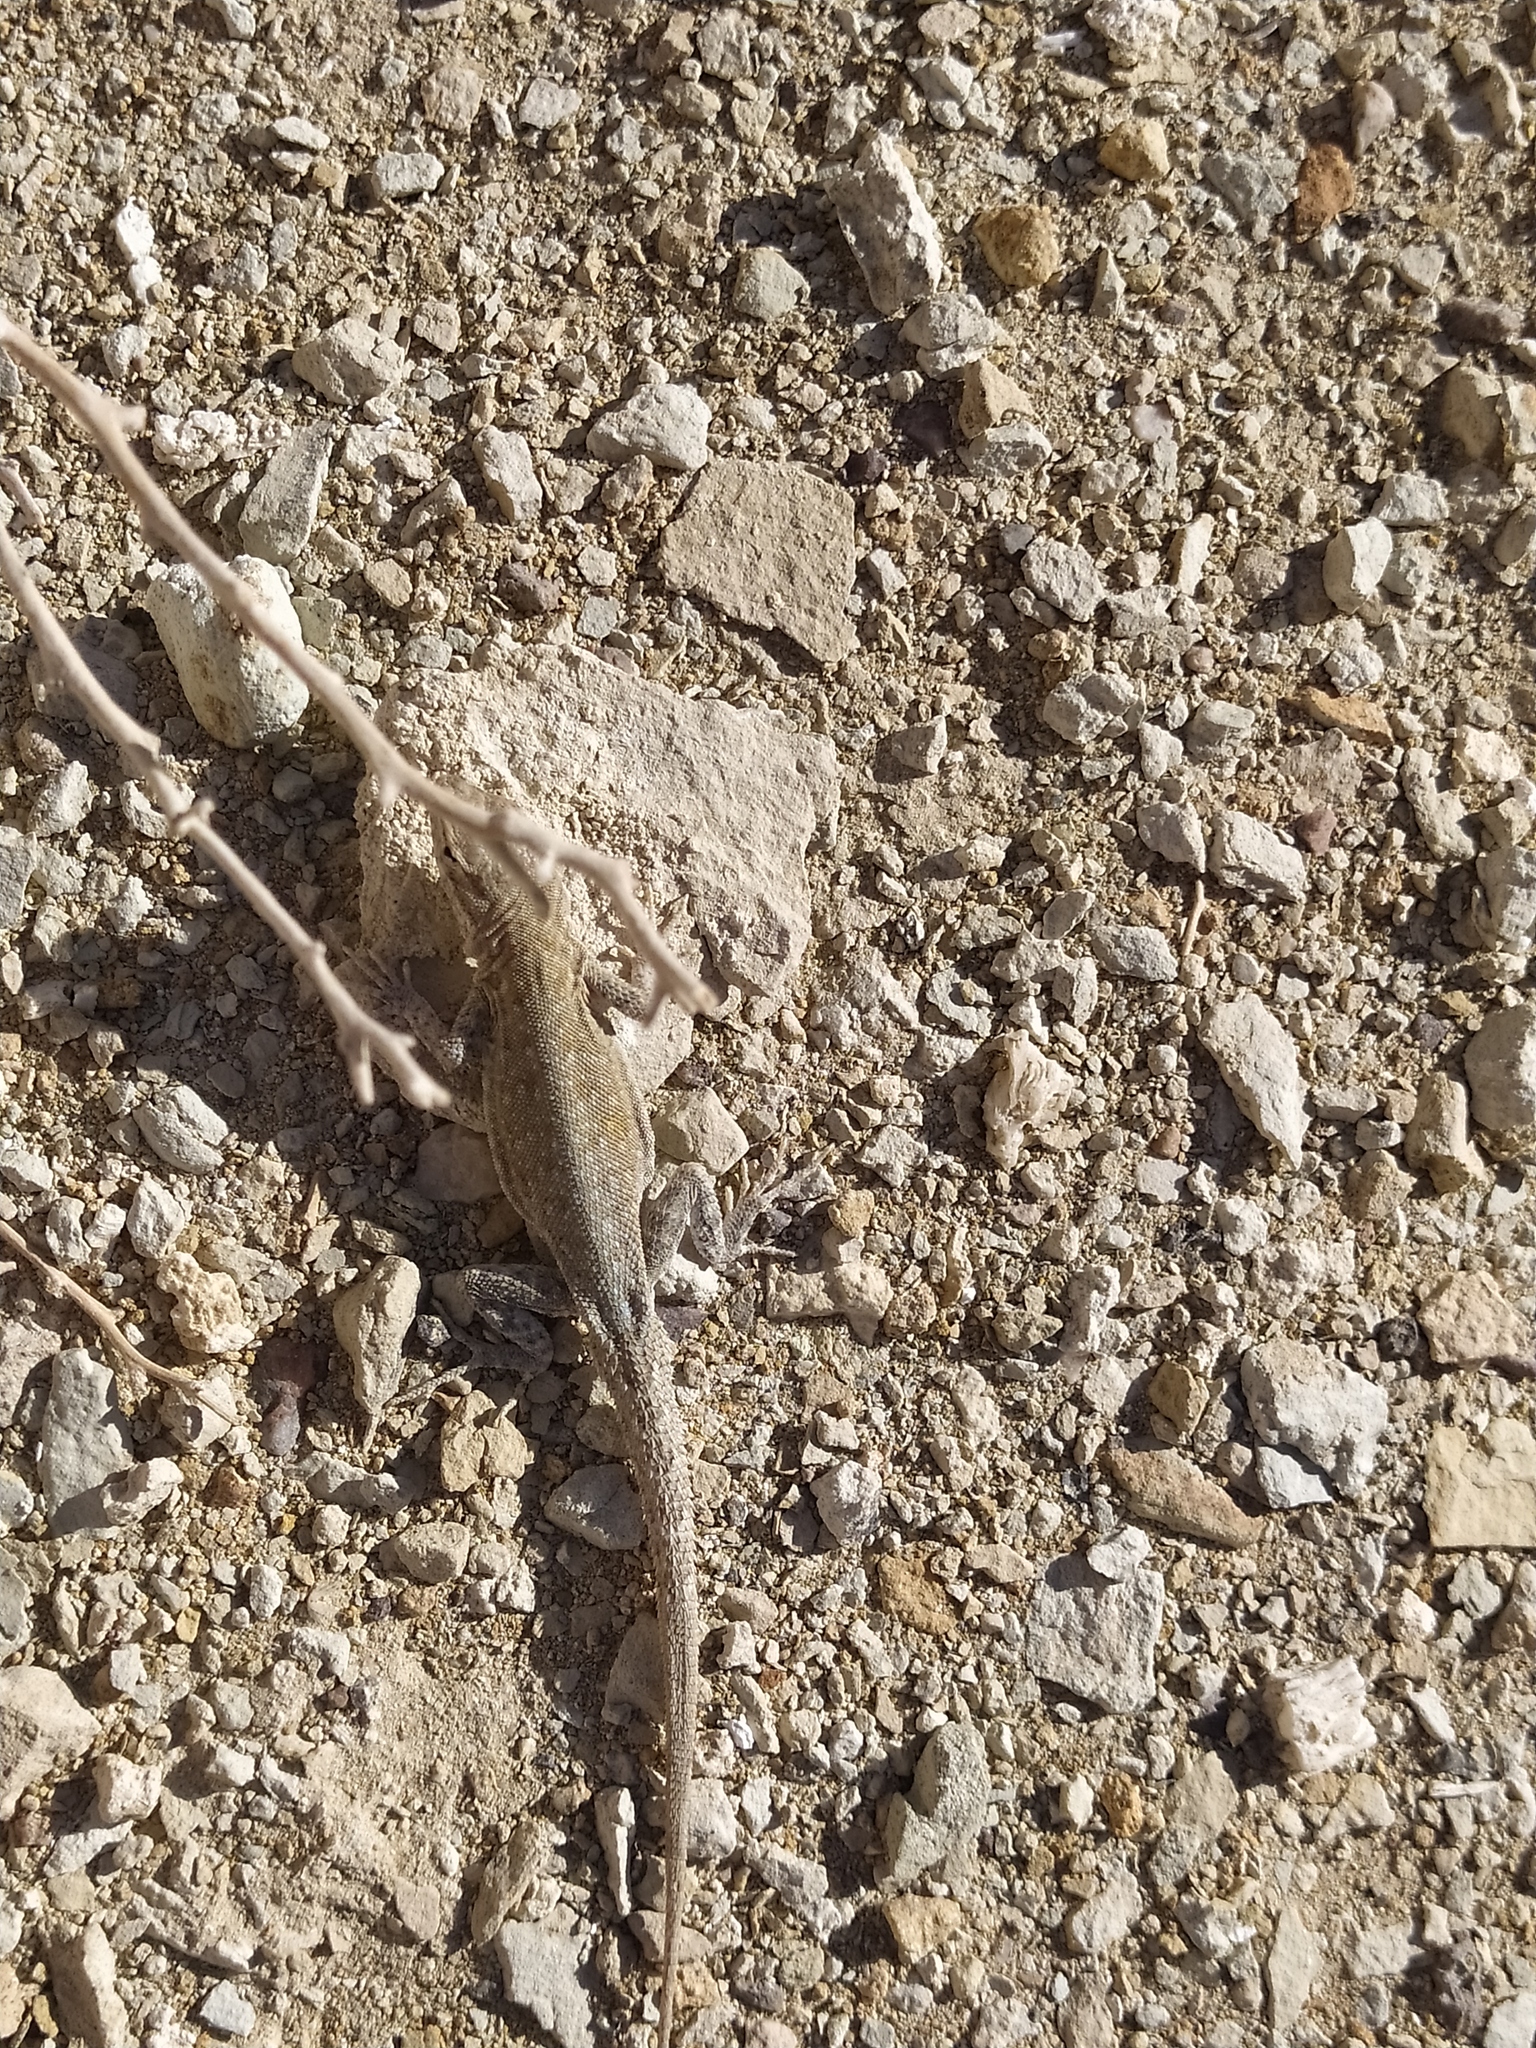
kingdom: Animalia
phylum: Chordata
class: Squamata
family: Phrynosomatidae
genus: Uta
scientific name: Uta stansburiana
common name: Side-blotched lizard
